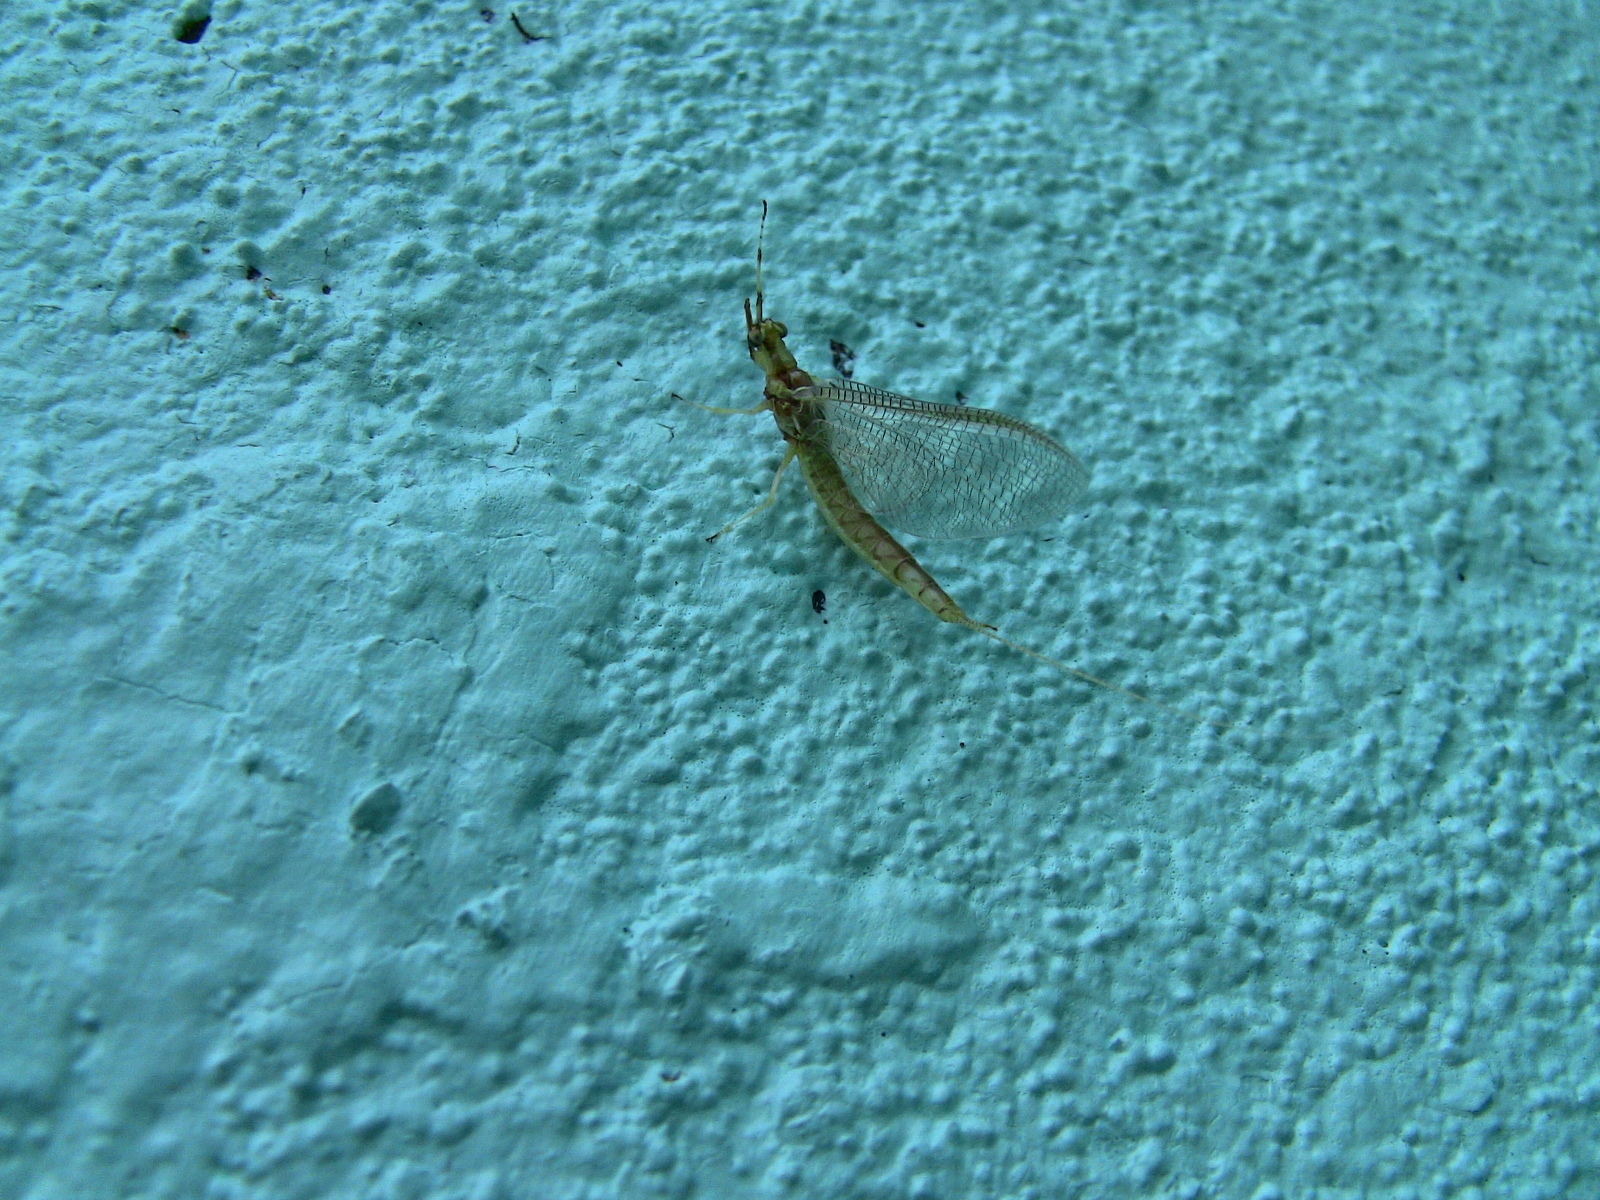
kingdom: Animalia
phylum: Arthropoda
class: Insecta
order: Ephemeroptera
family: Ephemeridae
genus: Hexagenia
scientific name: Hexagenia limbata
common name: Giant mayfly
